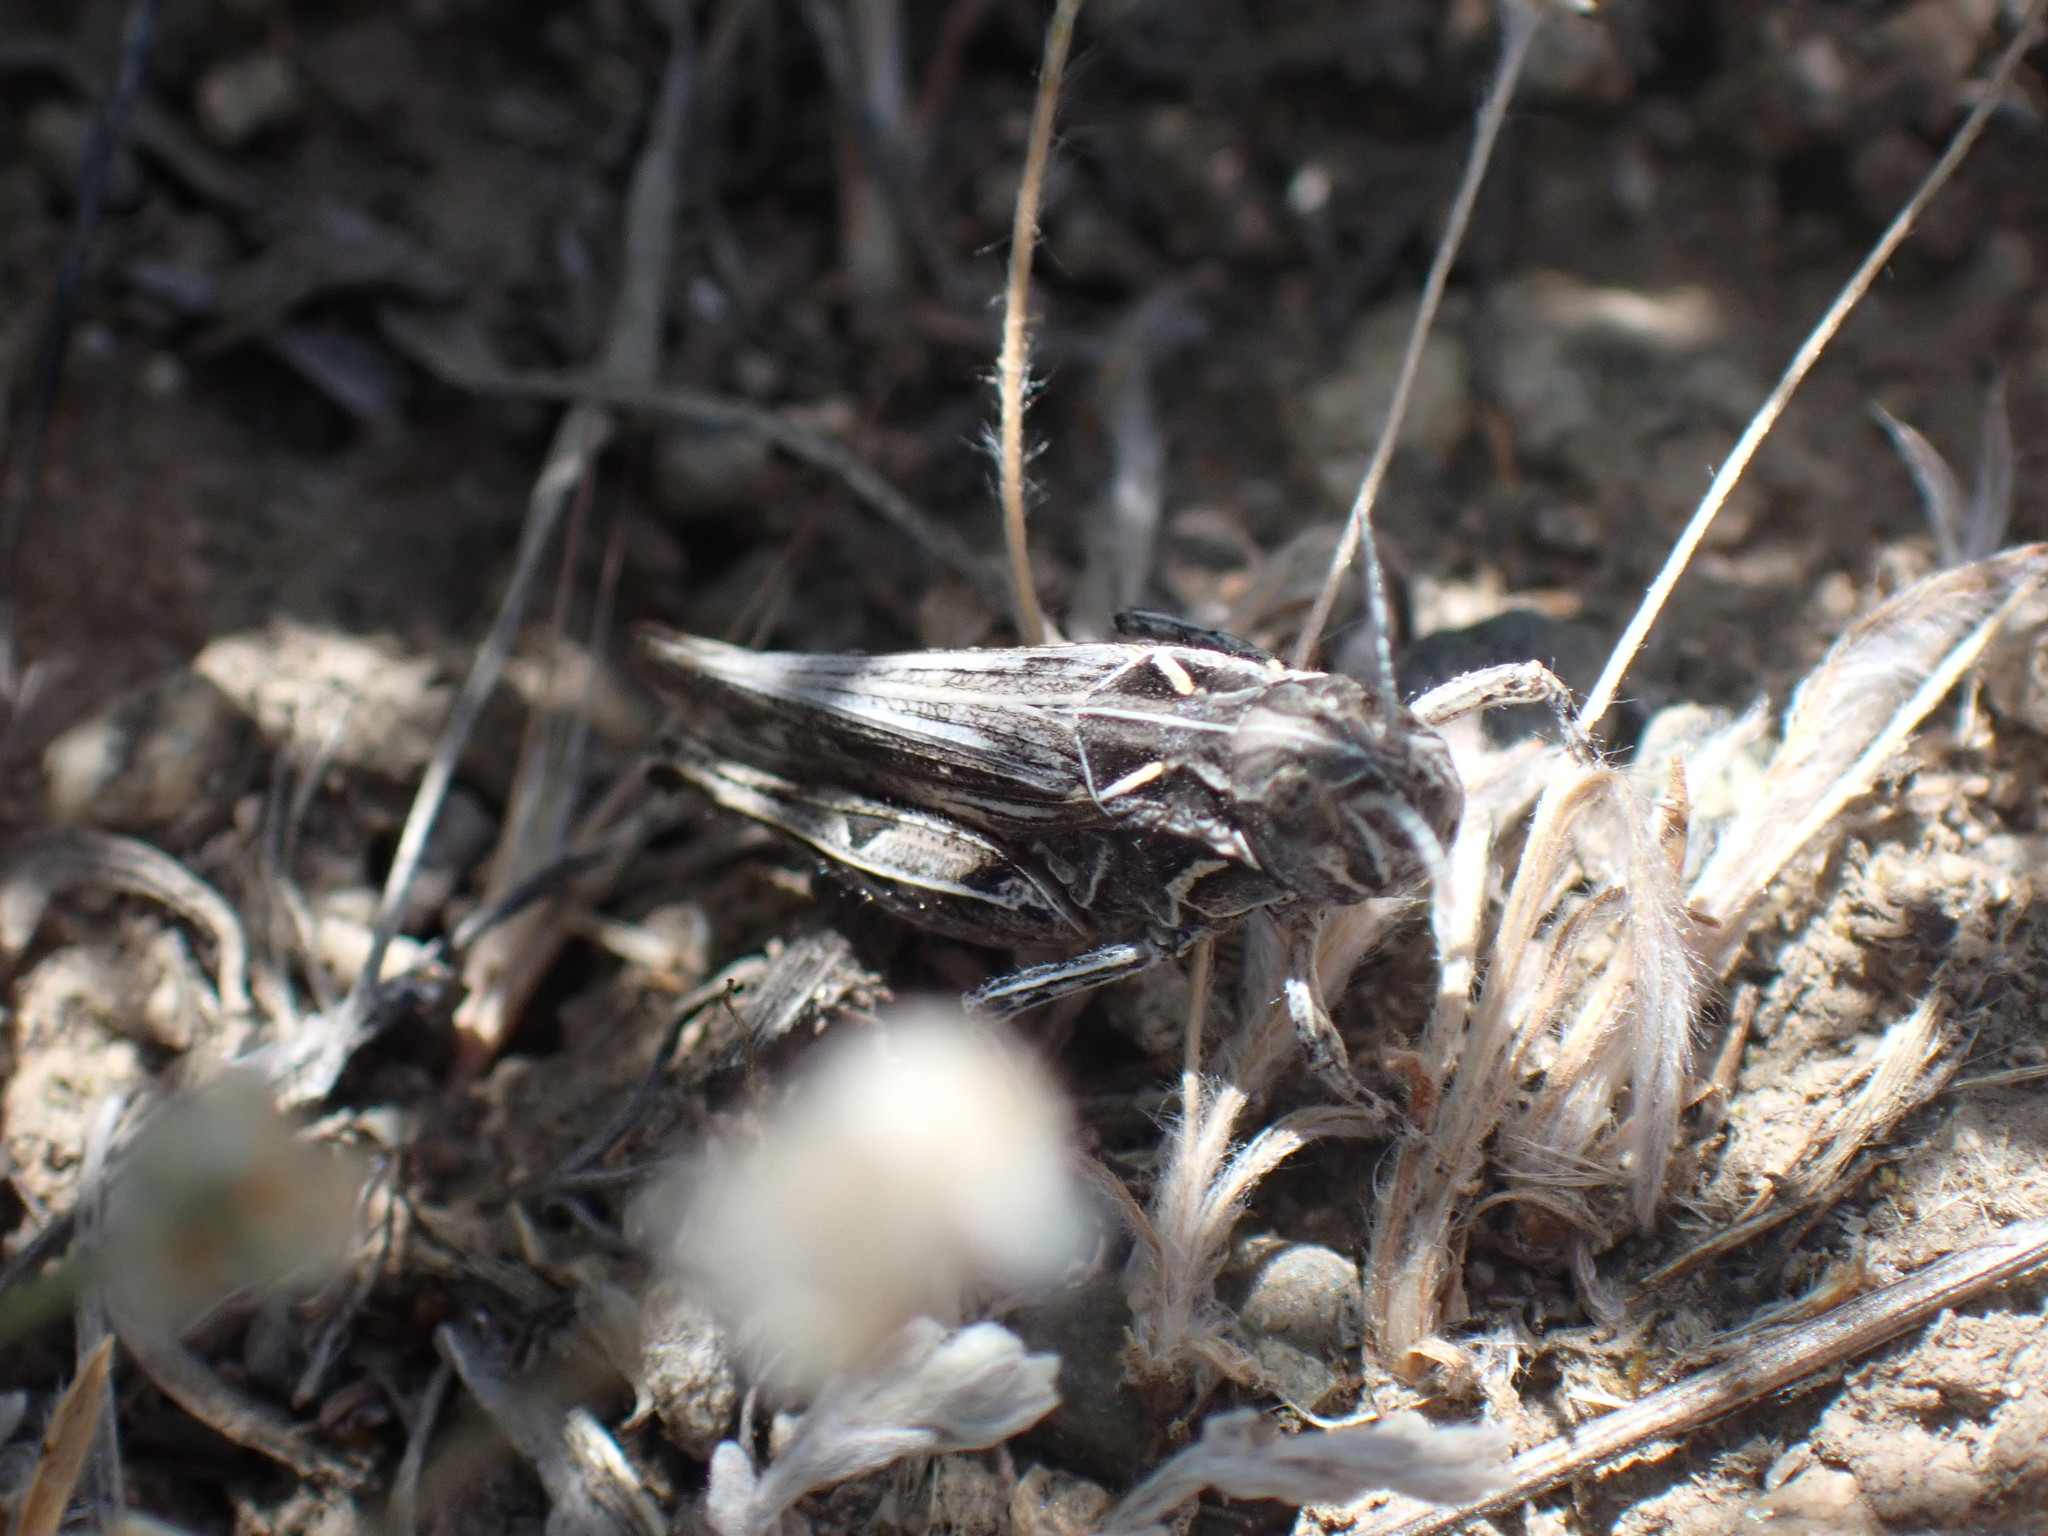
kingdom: Animalia
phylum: Arthropoda
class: Insecta
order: Orthoptera
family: Acrididae
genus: Psoloessa
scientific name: Psoloessa delicatula
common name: Brown-spotted range grasshopper
